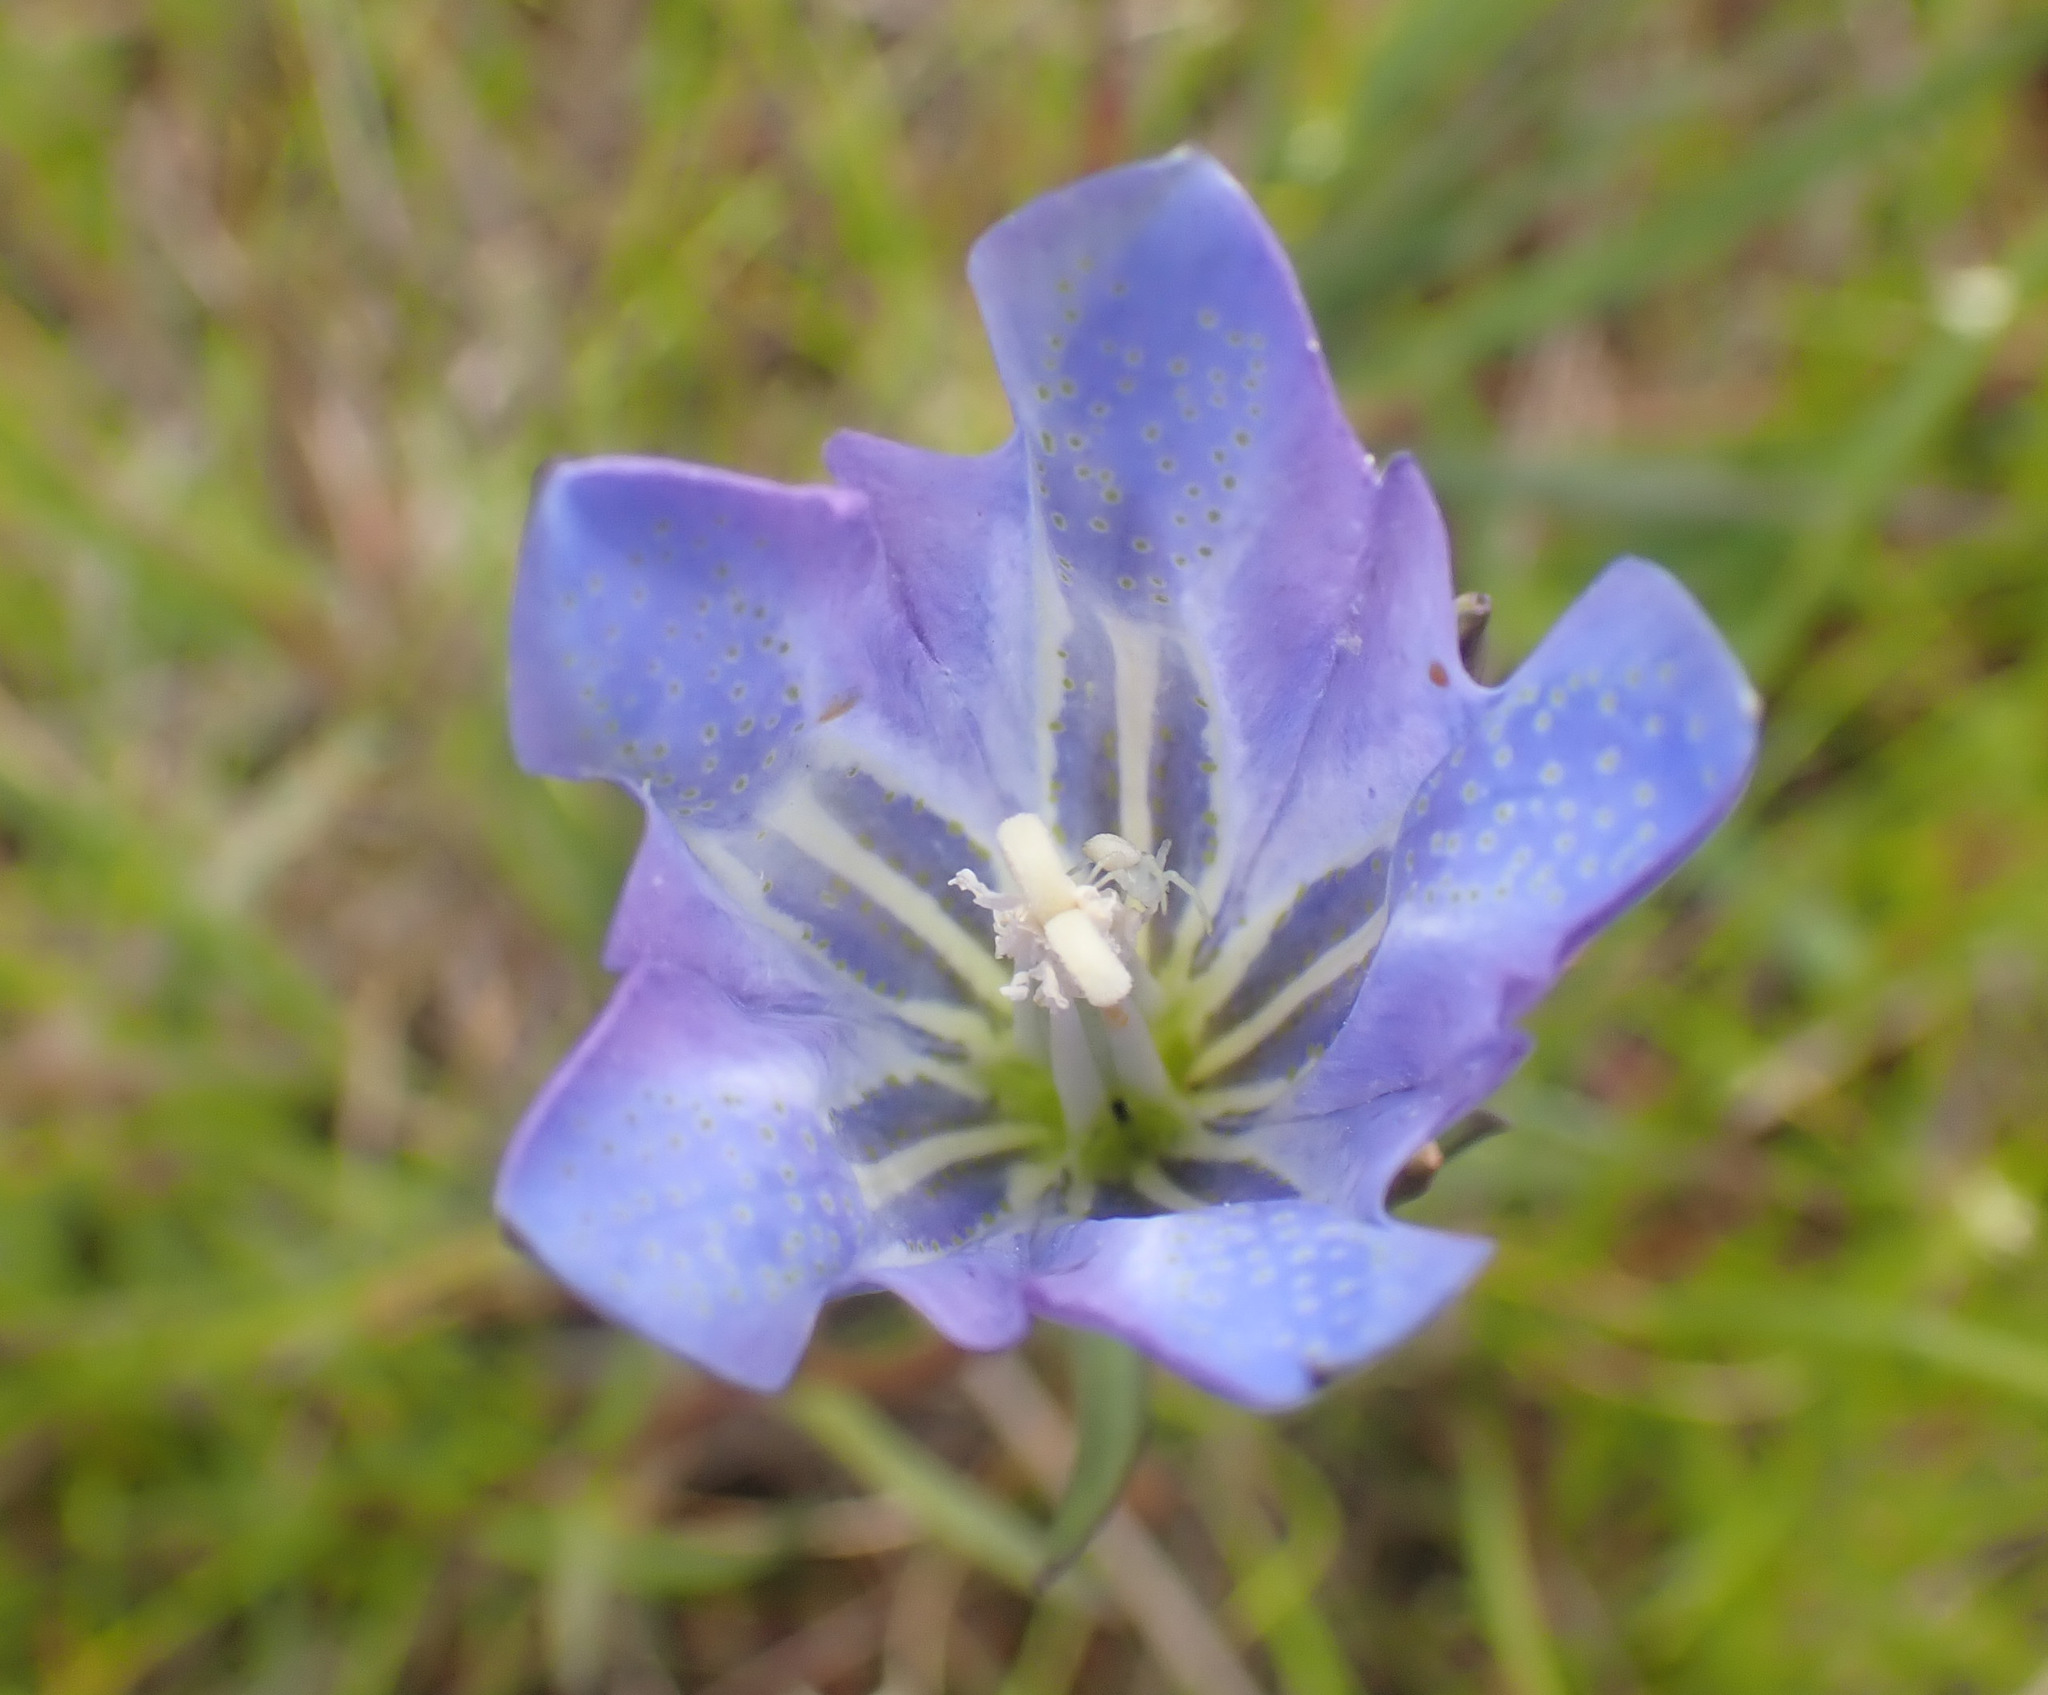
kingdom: Plantae
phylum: Tracheophyta
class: Magnoliopsida
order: Gentianales
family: Gentianaceae
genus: Gentiana
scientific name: Gentiana pneumonanthe
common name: Marsh gentian
